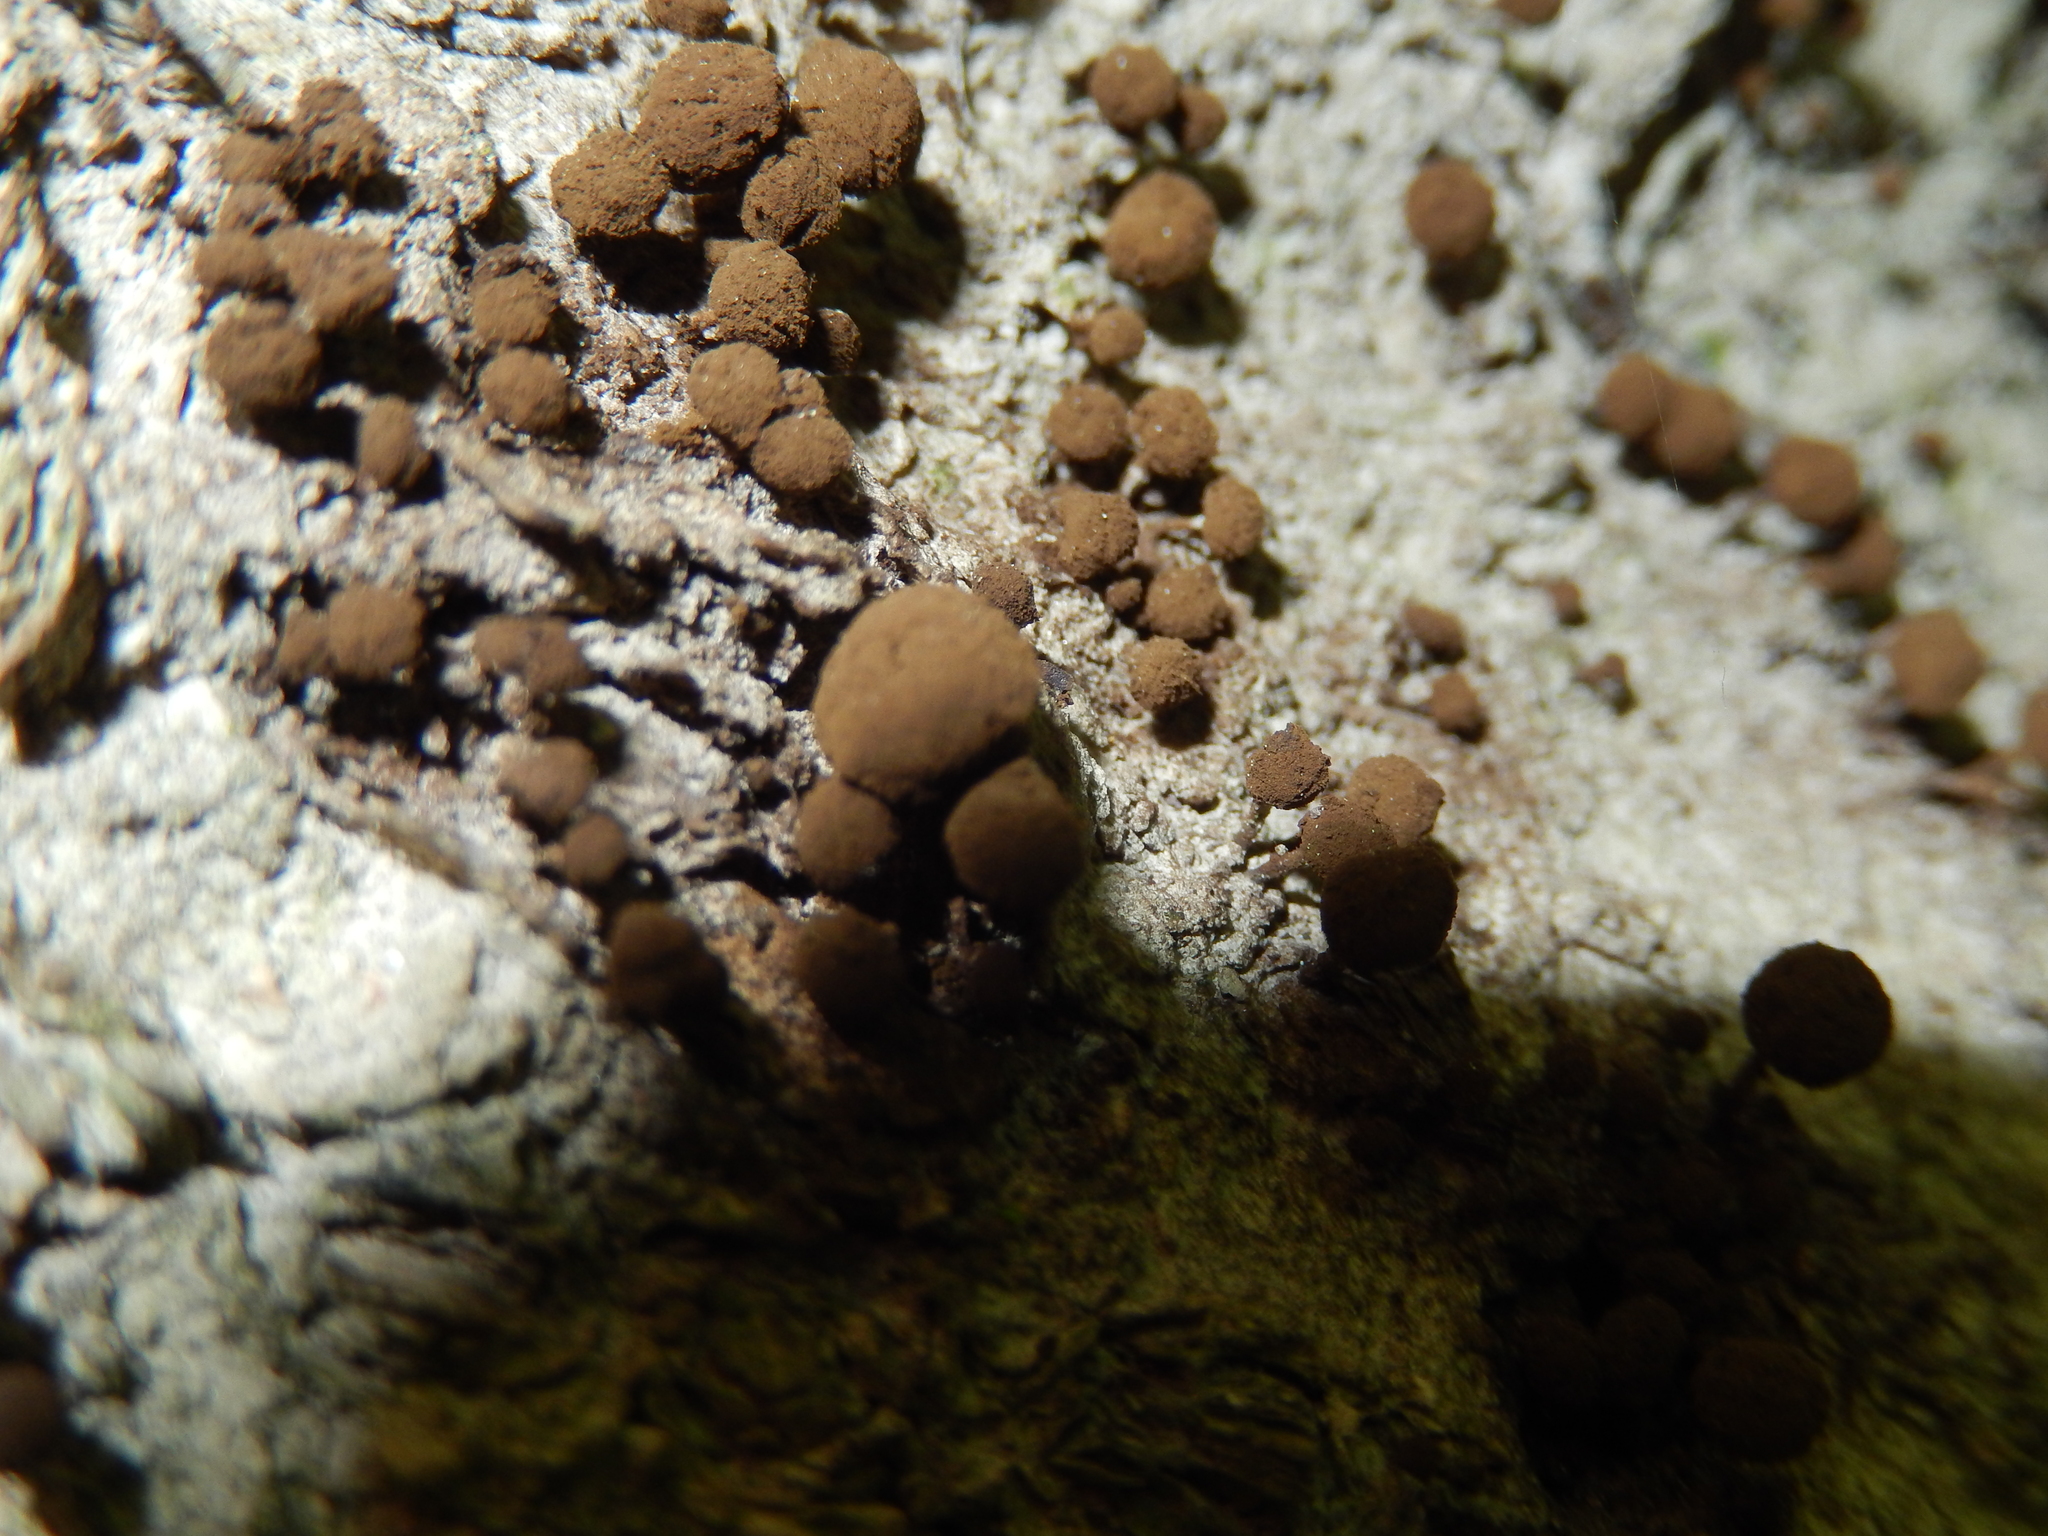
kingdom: Fungi
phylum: Basidiomycota
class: Atractiellomycetes
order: Atractiellales
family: Phleogenaceae
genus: Phleogena
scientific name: Phleogena faginea
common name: Fenugreek stalkball
